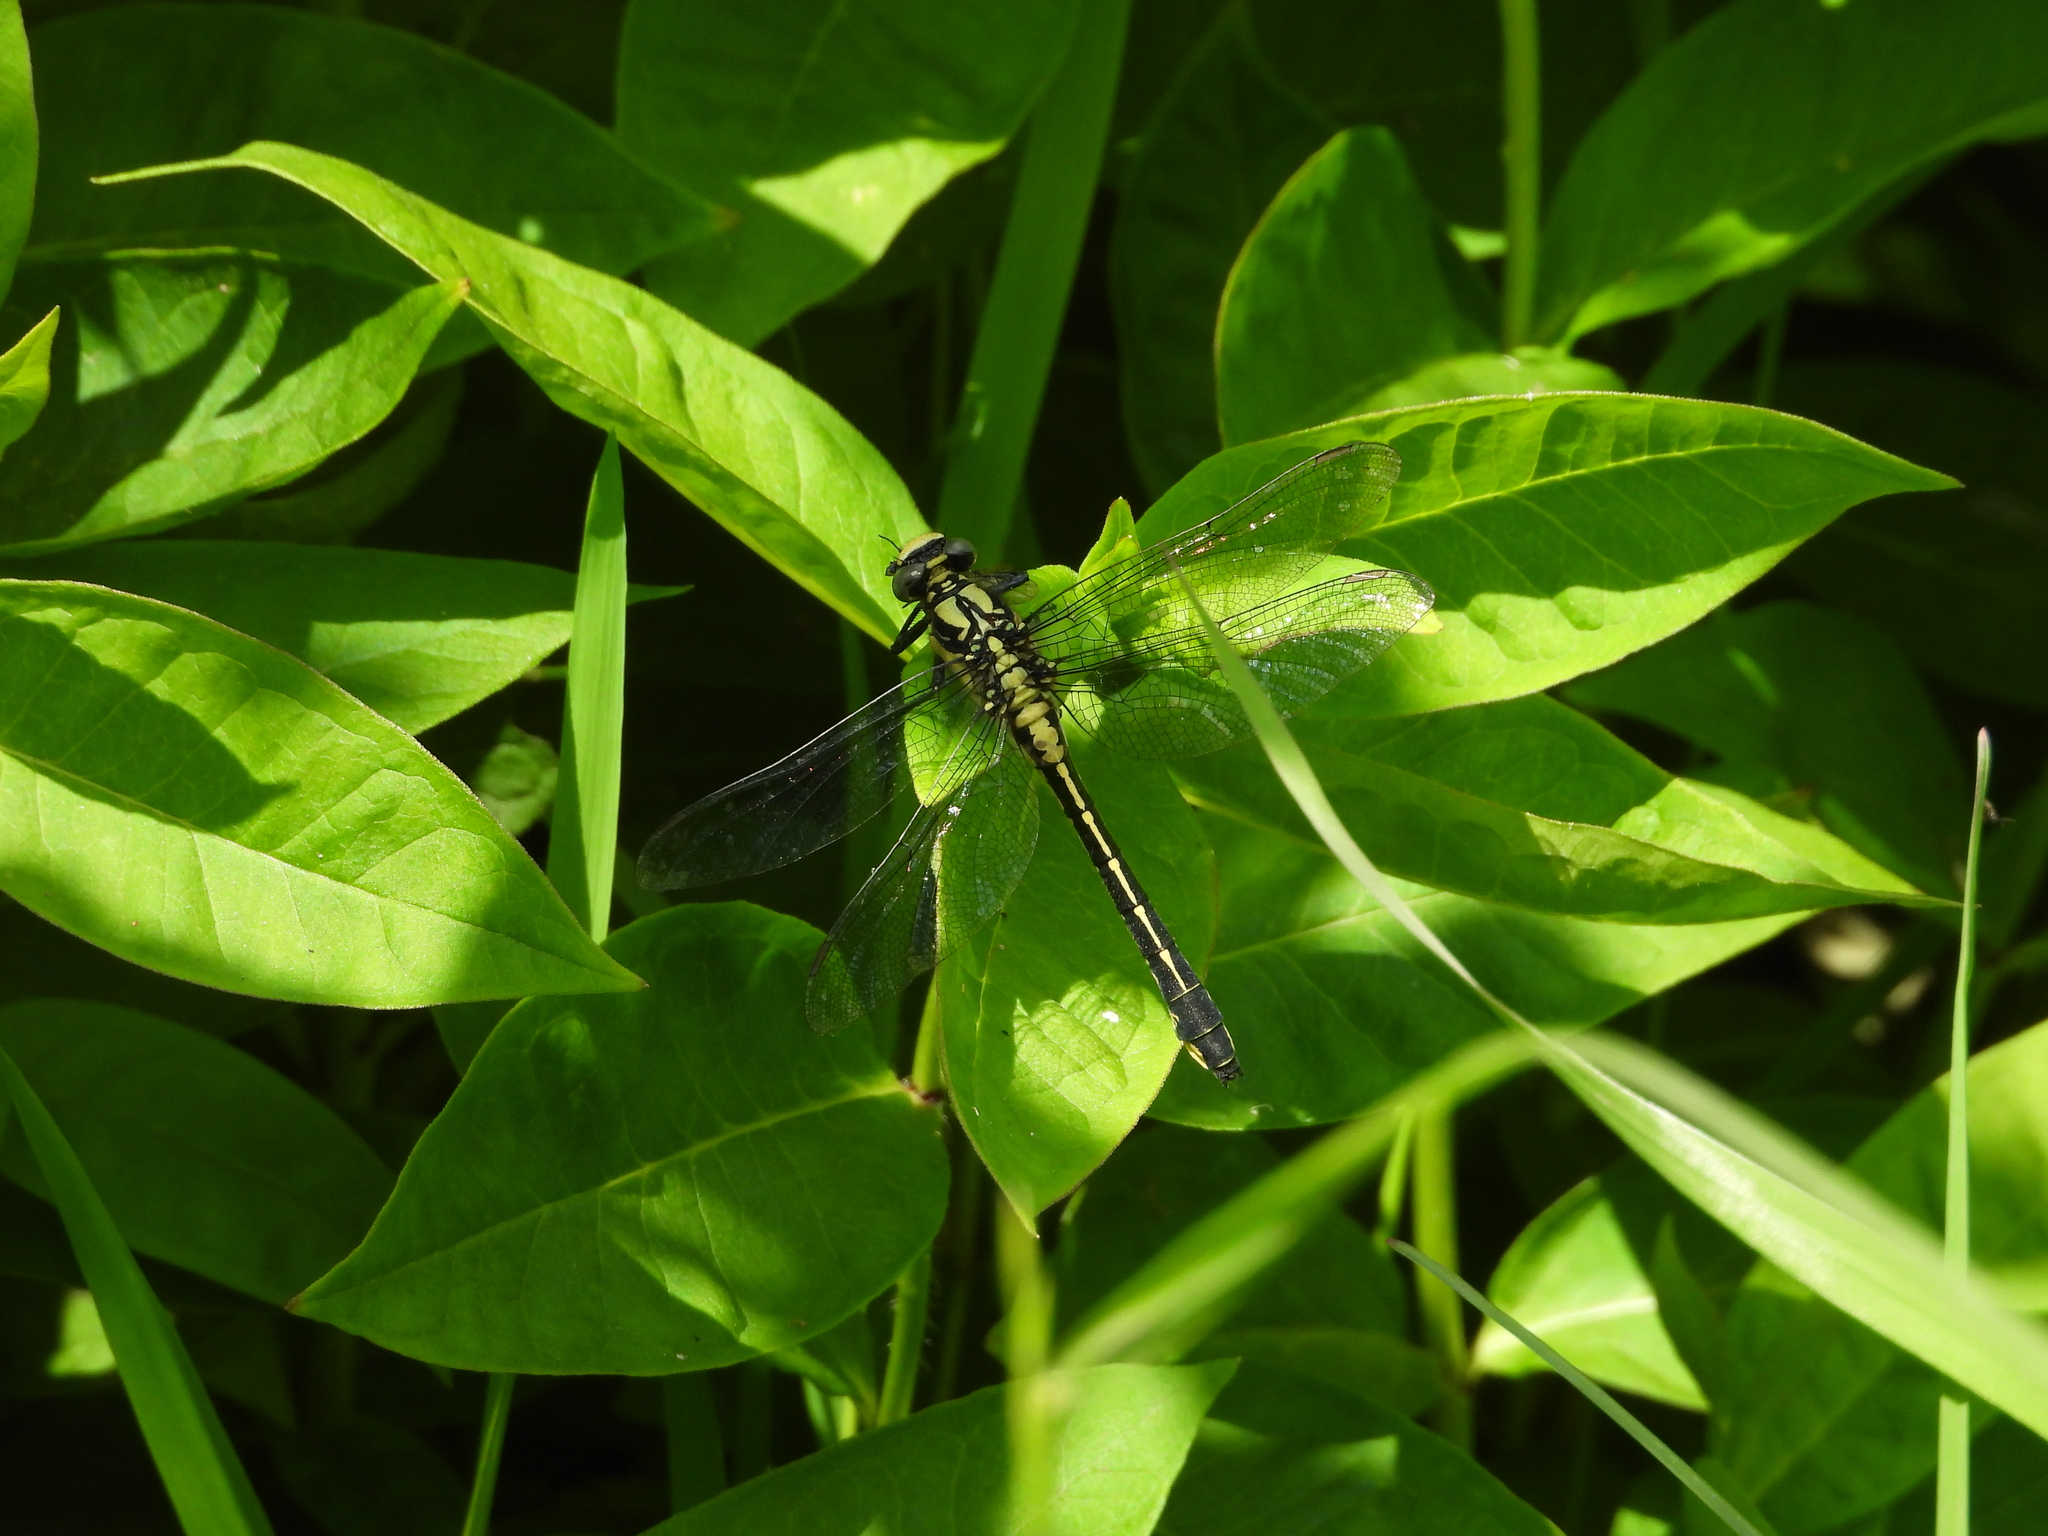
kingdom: Animalia
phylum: Arthropoda
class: Insecta
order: Odonata
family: Gomphidae
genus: Gomphus
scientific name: Gomphus vulgatissimus
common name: Club-tailed dragonfly
